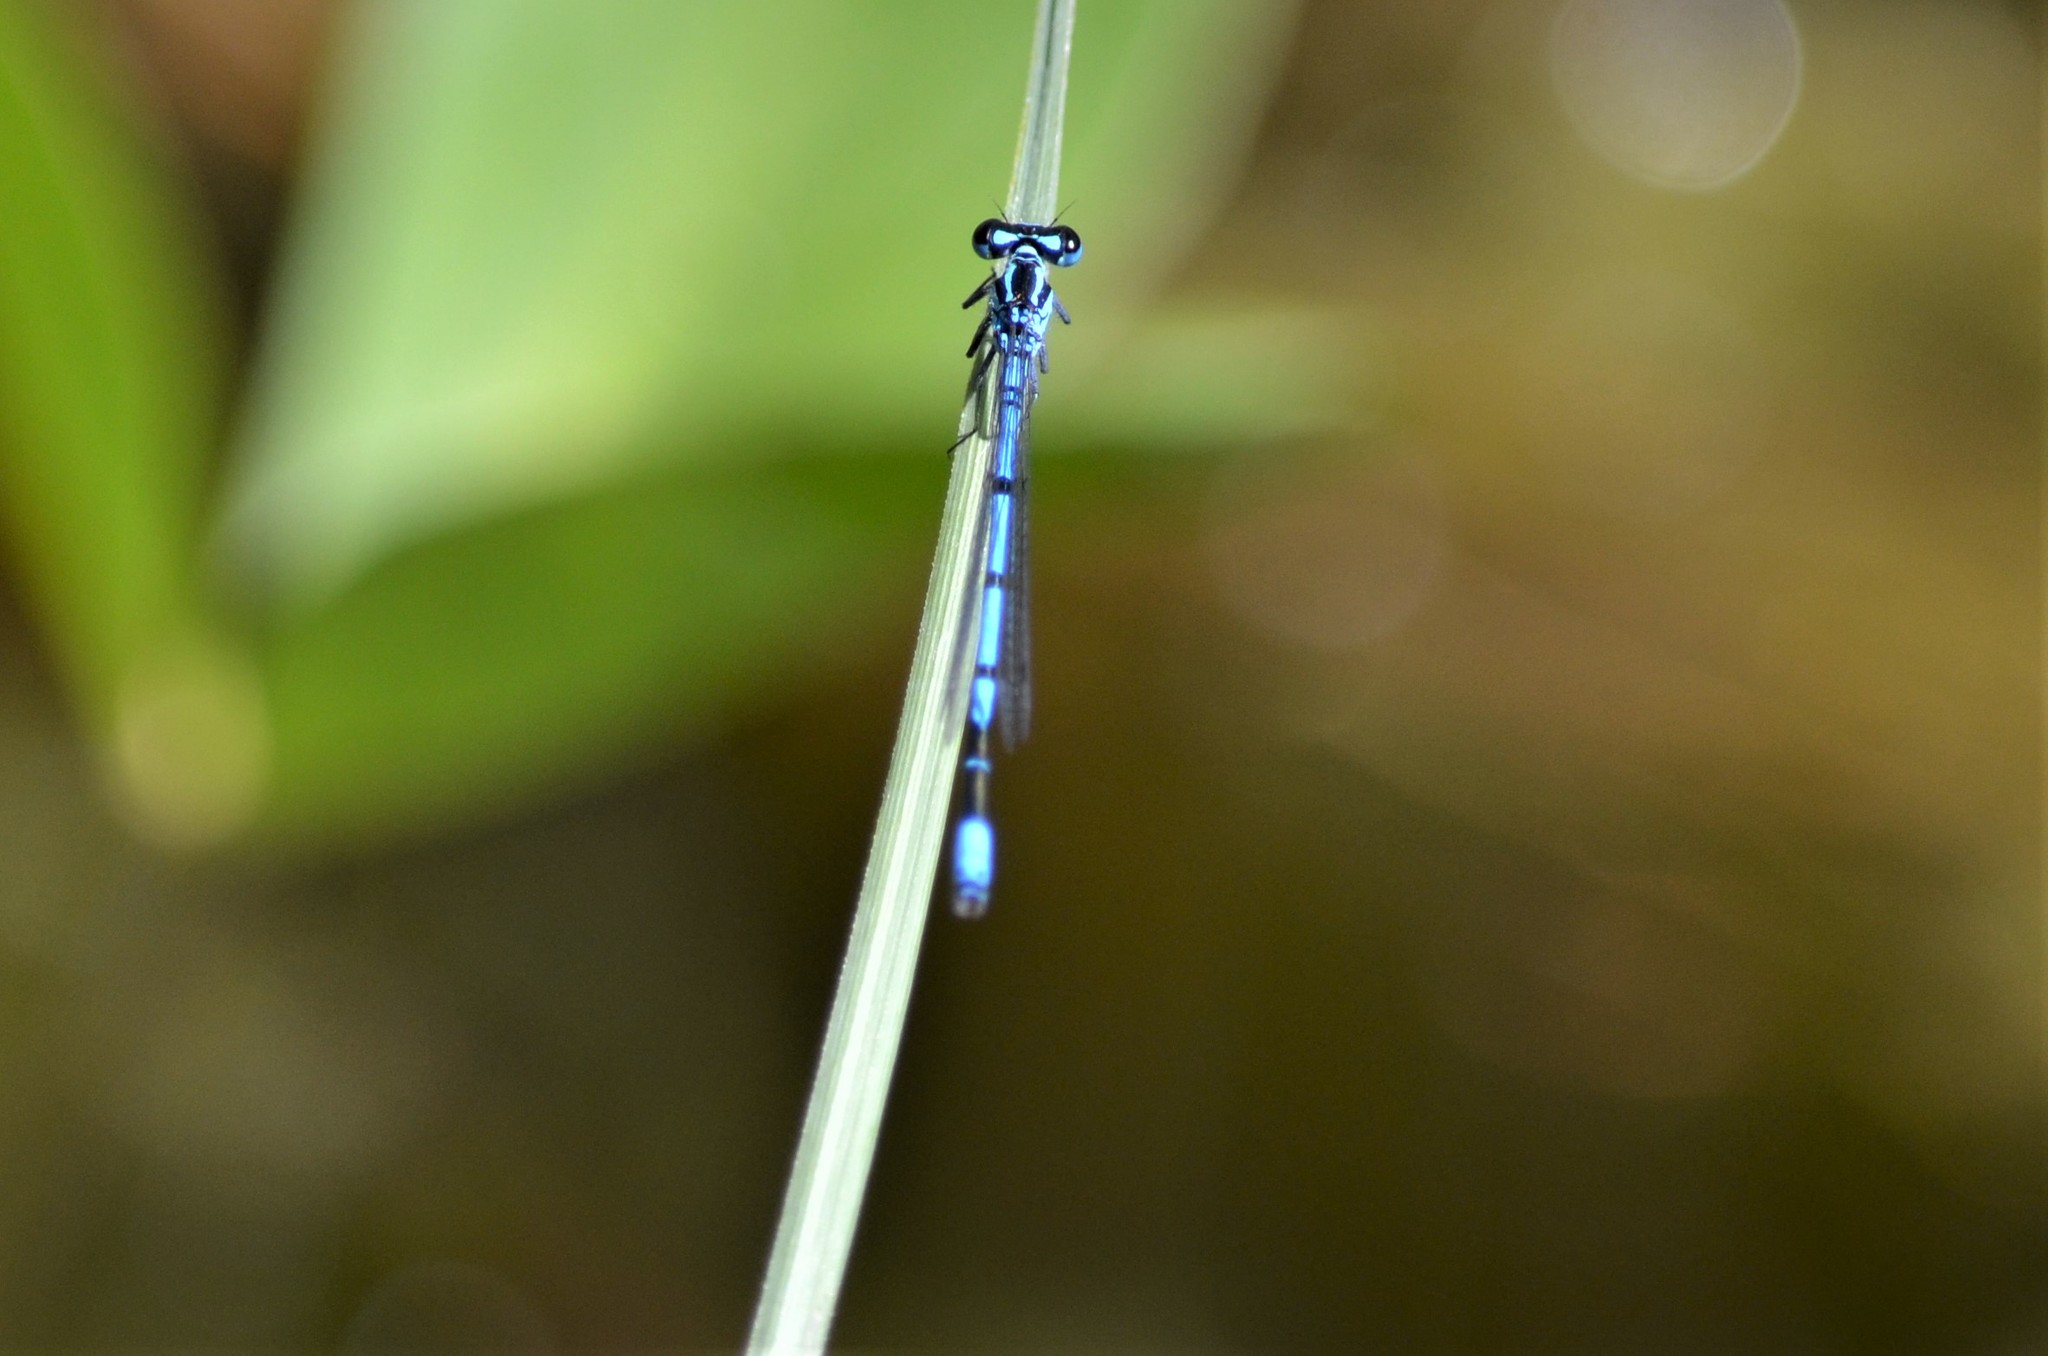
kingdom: Animalia
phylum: Arthropoda
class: Insecta
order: Odonata
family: Coenagrionidae
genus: Coenagrion
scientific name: Coenagrion puella
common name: Azure damselfly
